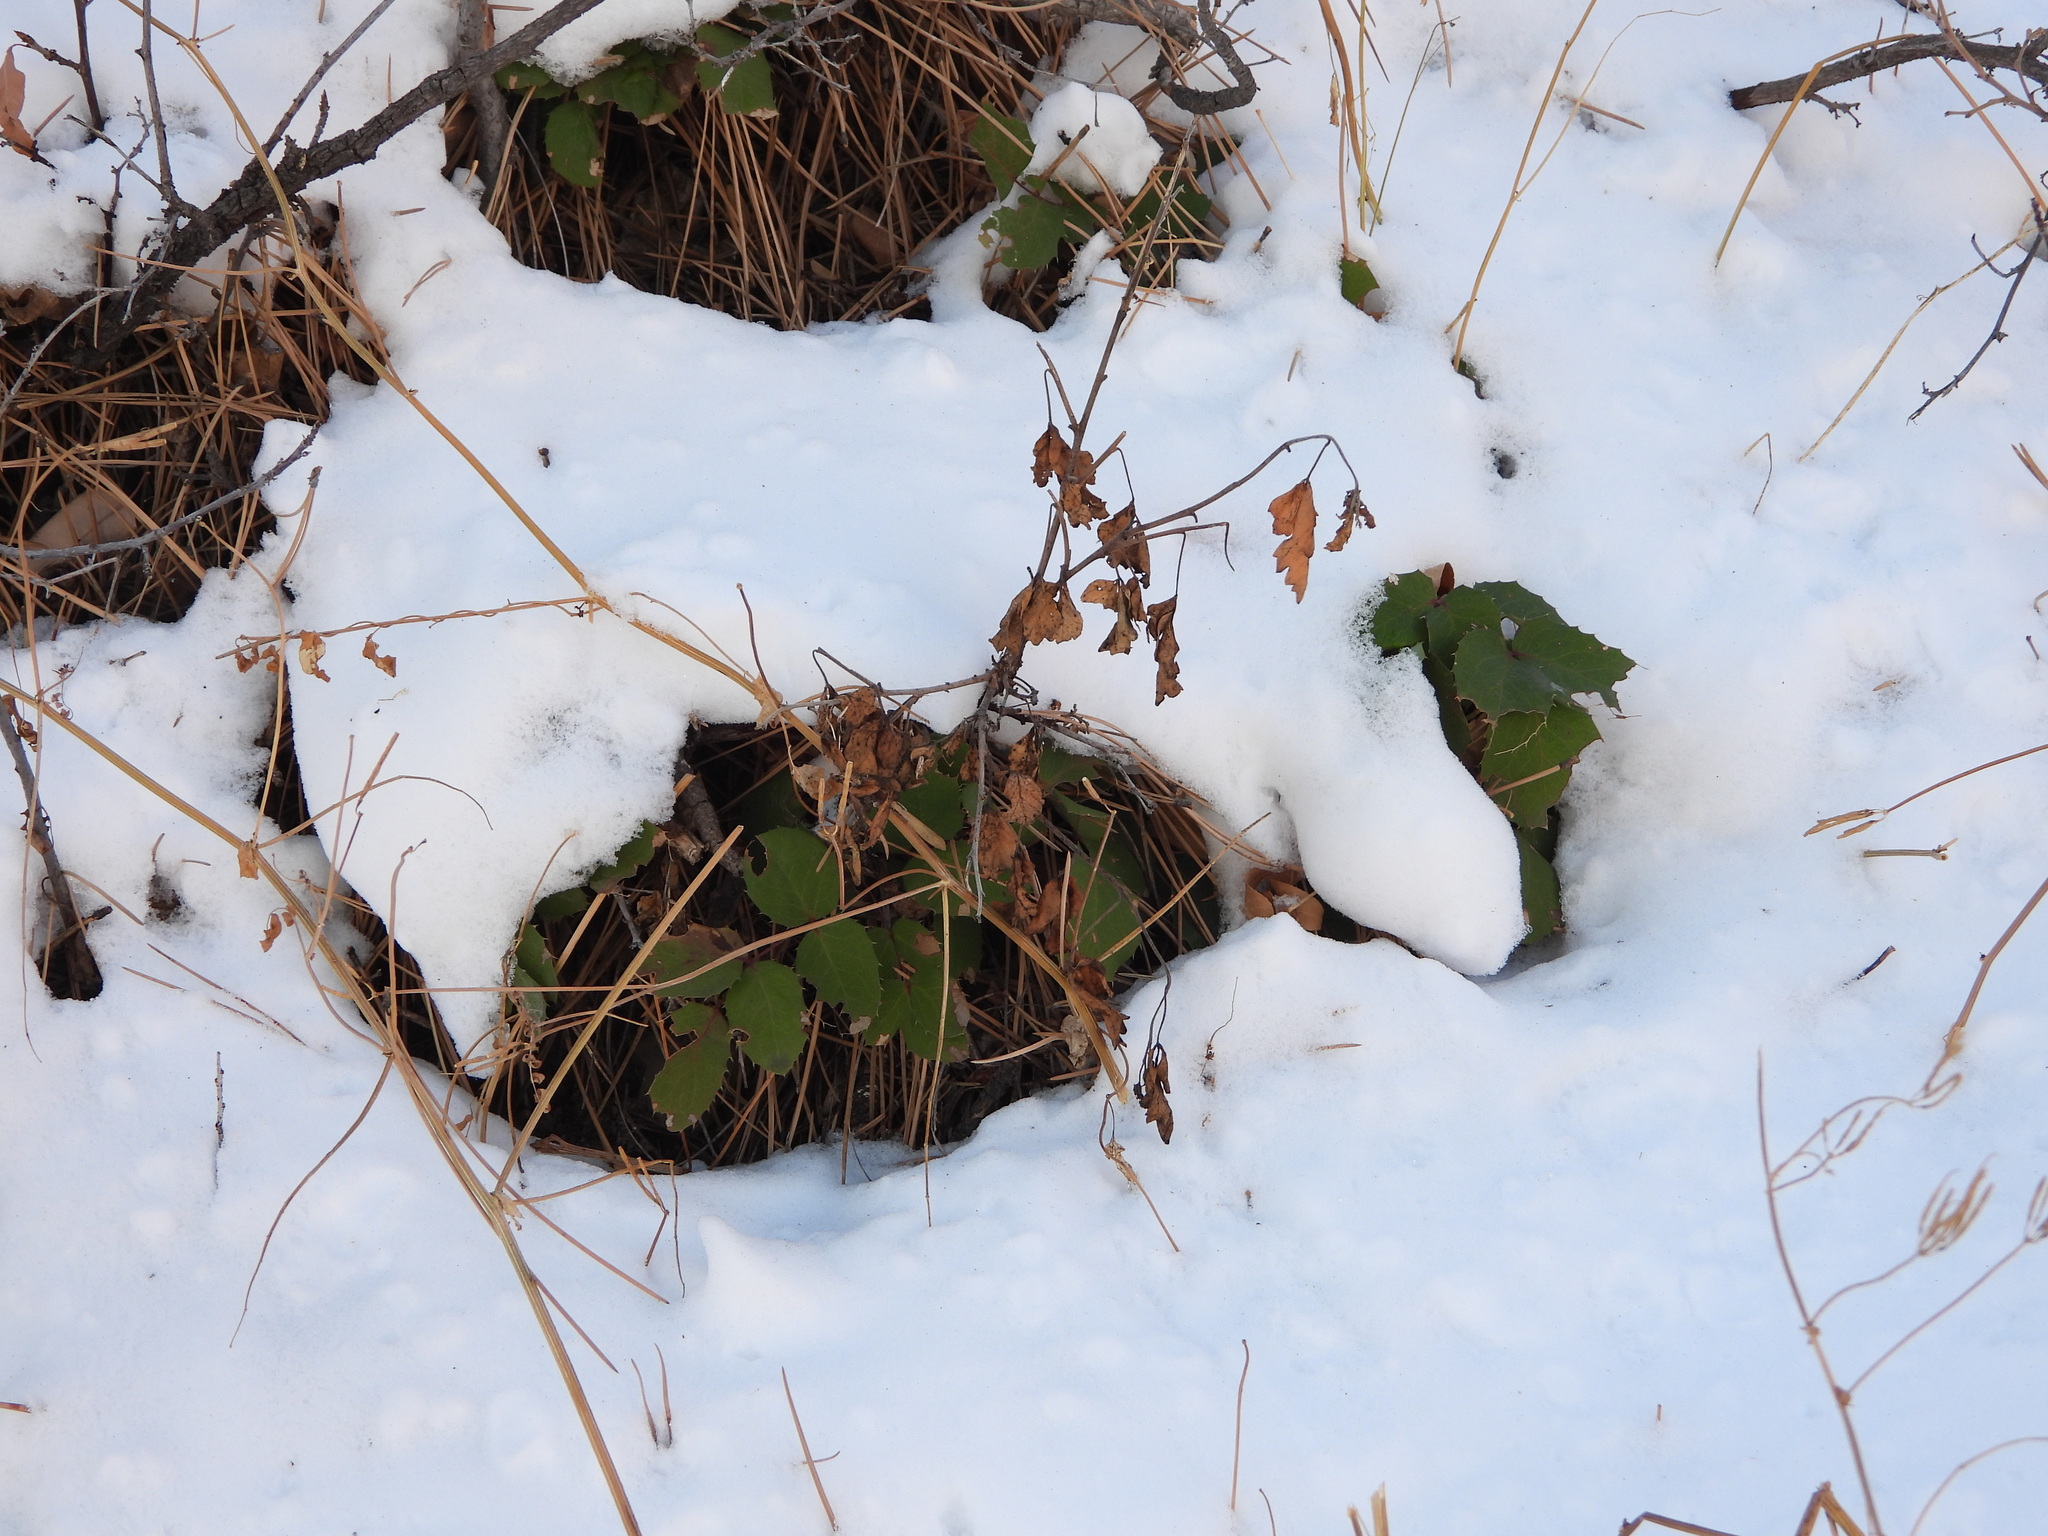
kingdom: Plantae
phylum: Tracheophyta
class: Magnoliopsida
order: Ranunculales
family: Berberidaceae
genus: Mahonia
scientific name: Mahonia repens
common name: Creeping oregon-grape
